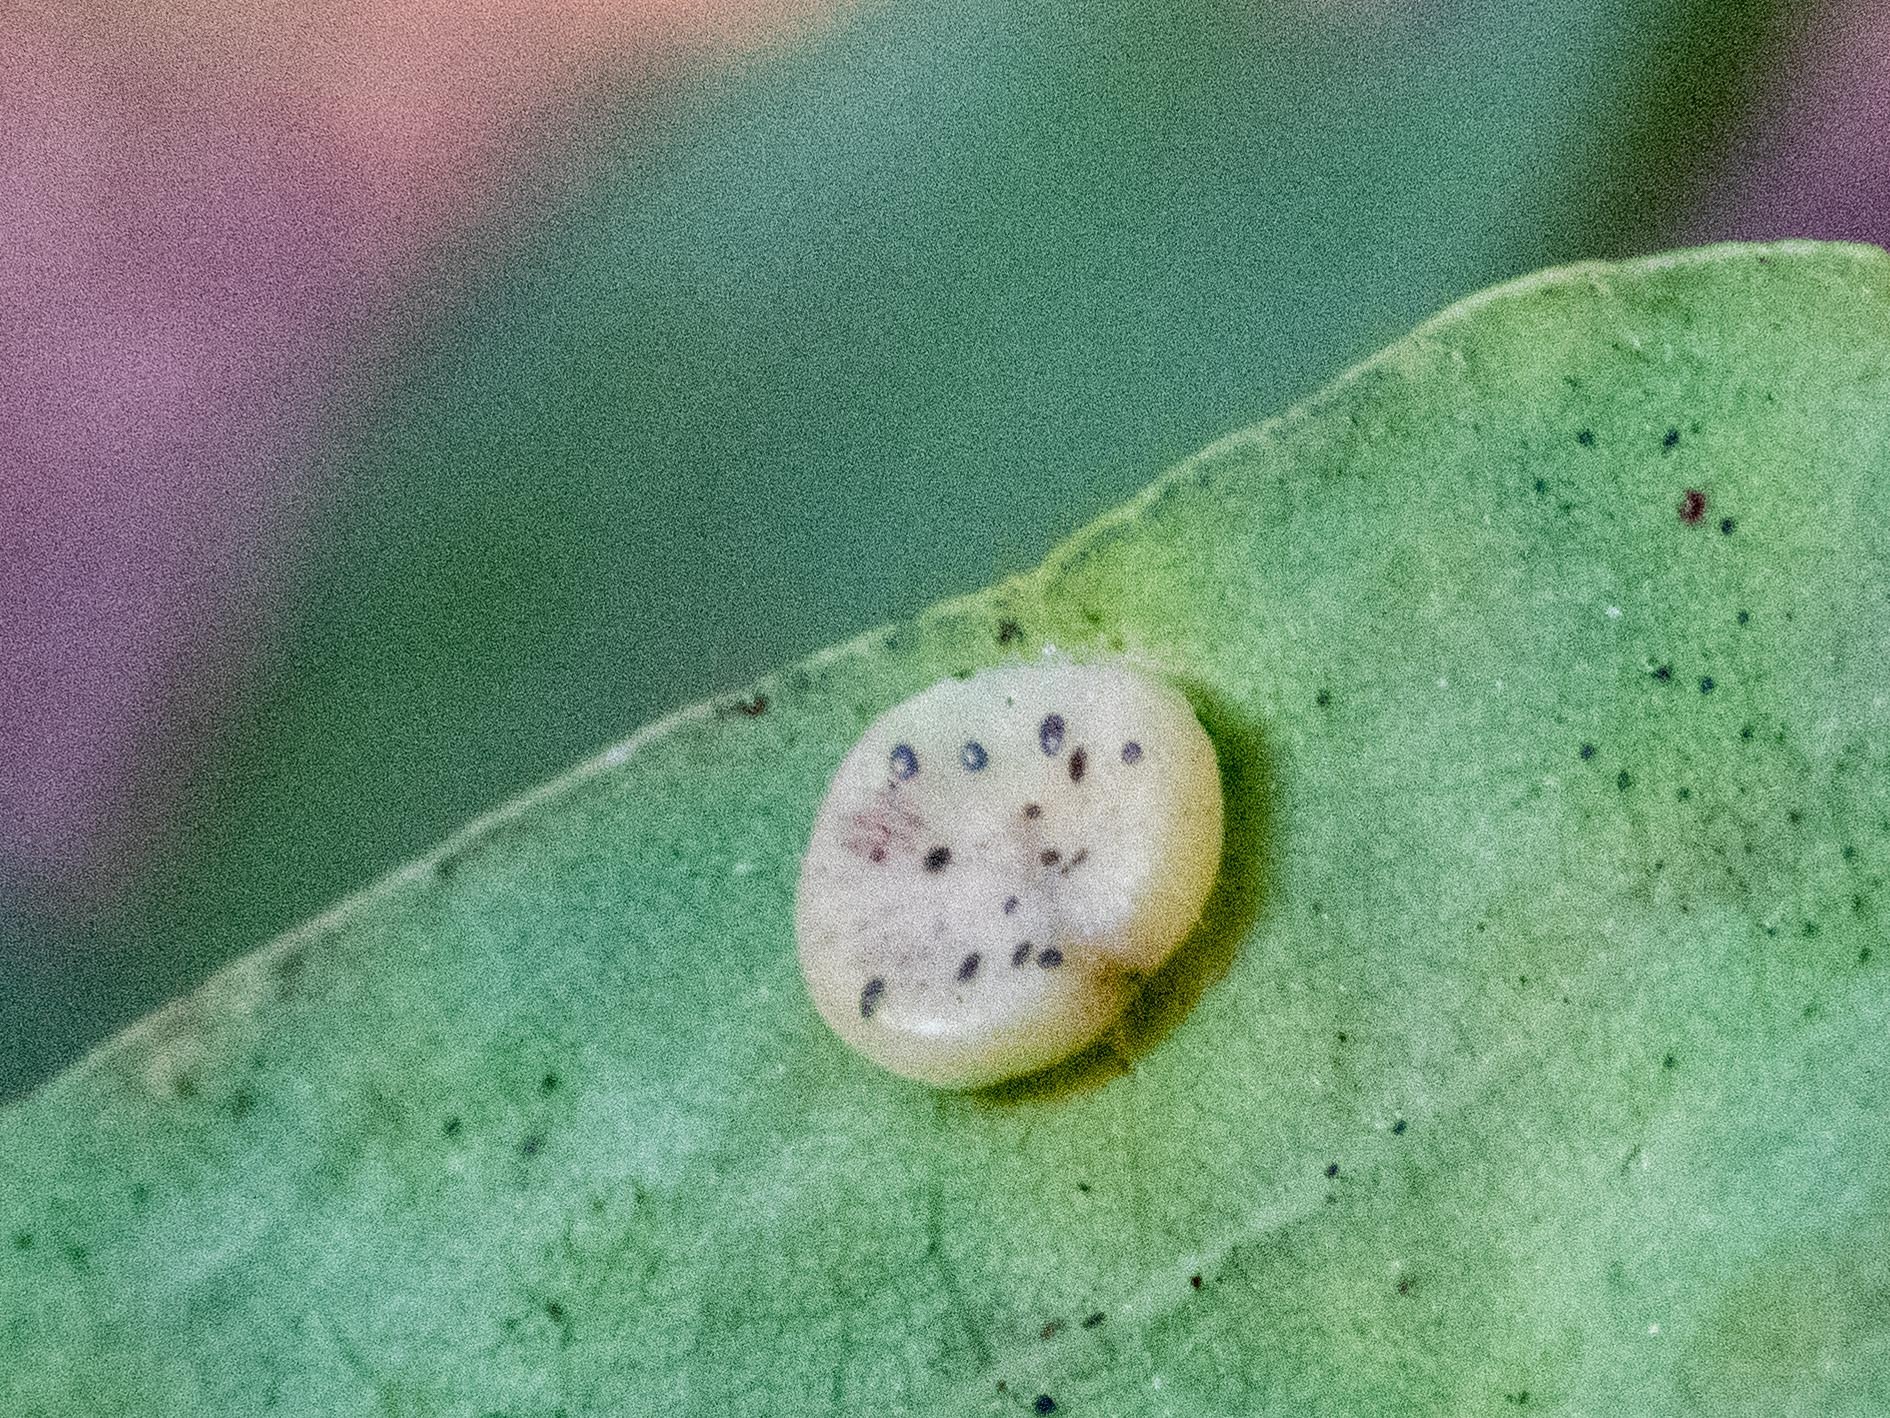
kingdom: Animalia
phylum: Arthropoda
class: Insecta
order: Hymenoptera
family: Cynipidae
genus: Neuroterus
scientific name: Neuroterus albipes
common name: Smooth spangle gall
